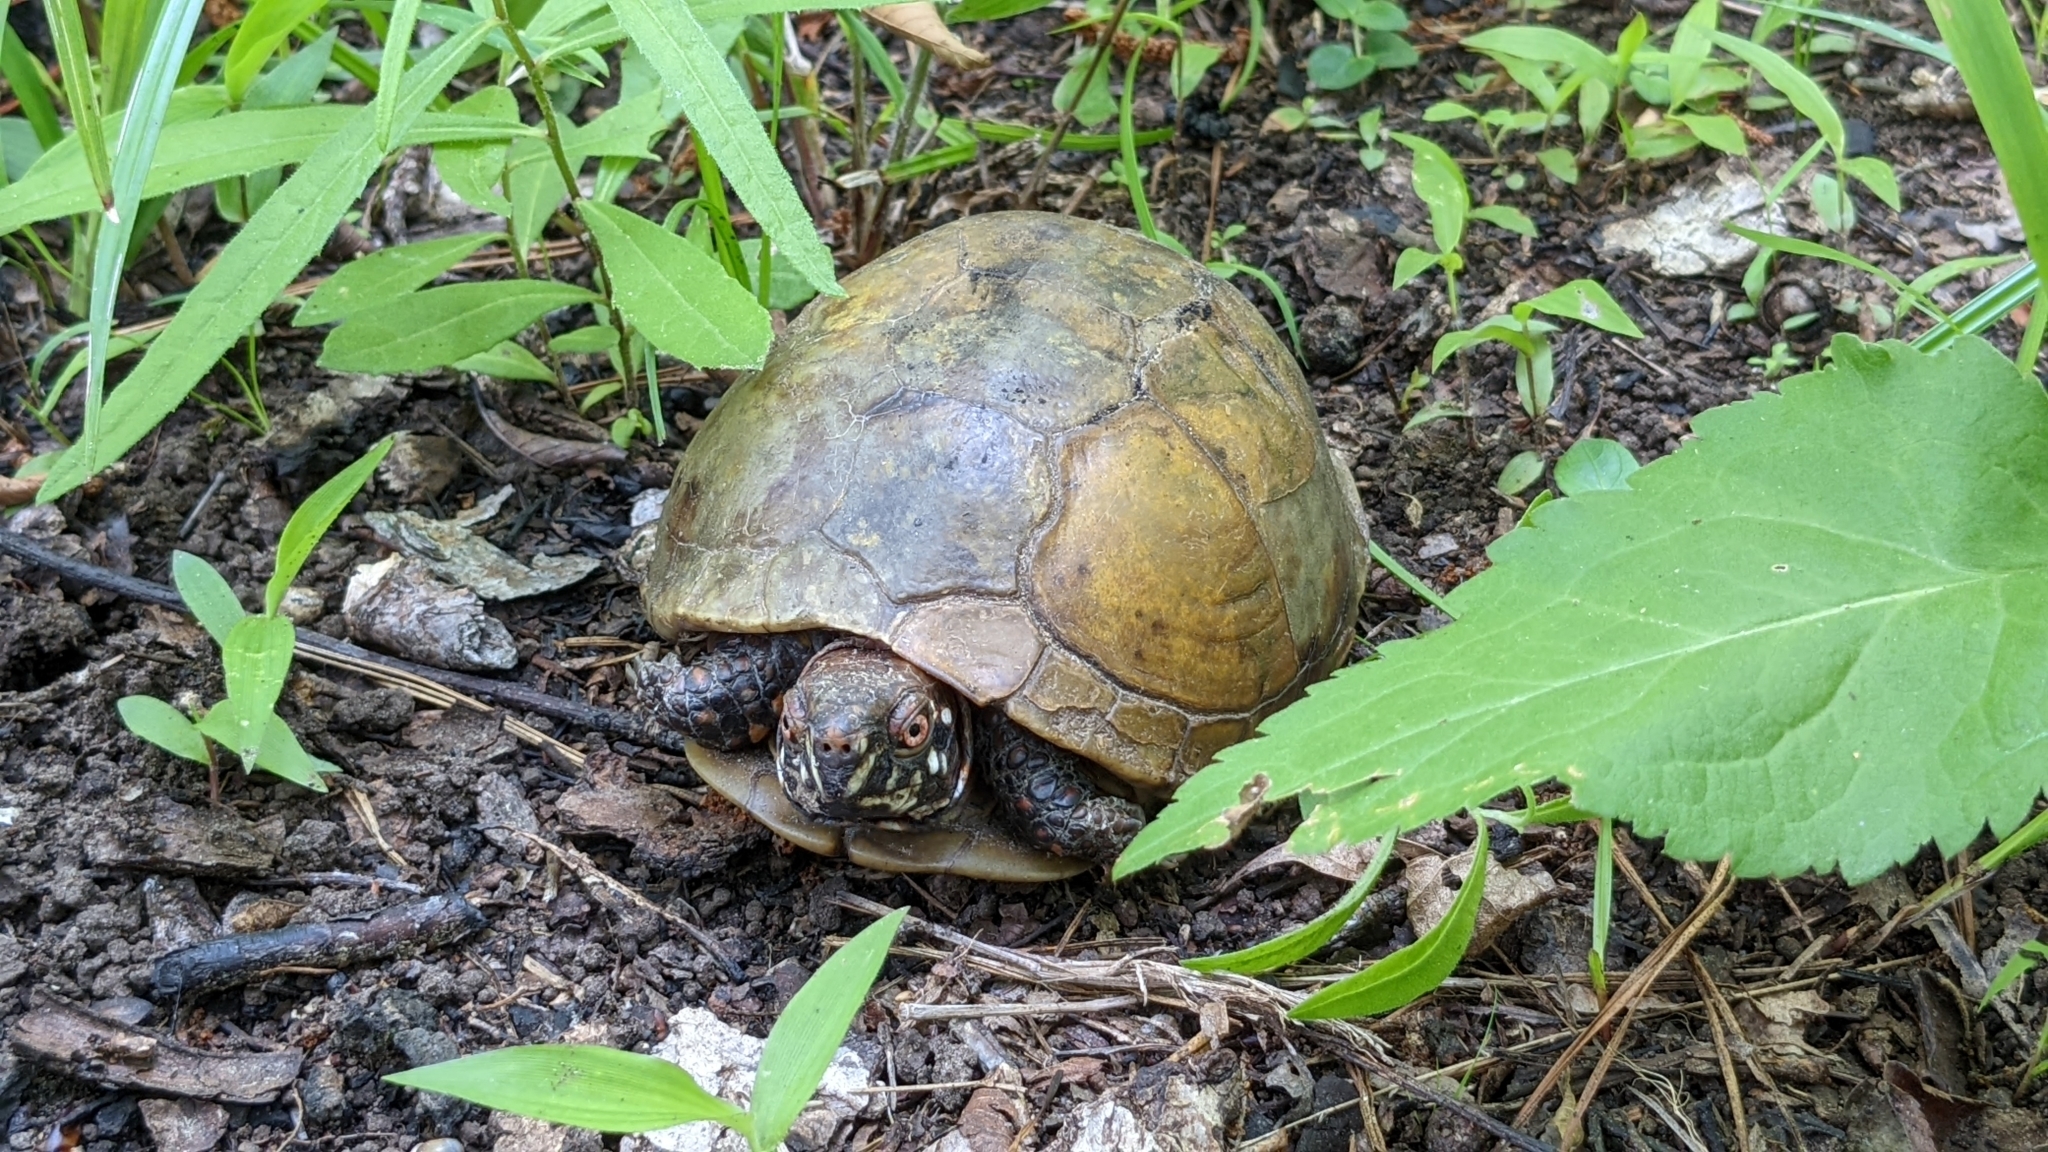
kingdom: Animalia
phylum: Chordata
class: Testudines
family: Emydidae
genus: Terrapene
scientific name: Terrapene carolina
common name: Common box turtle
